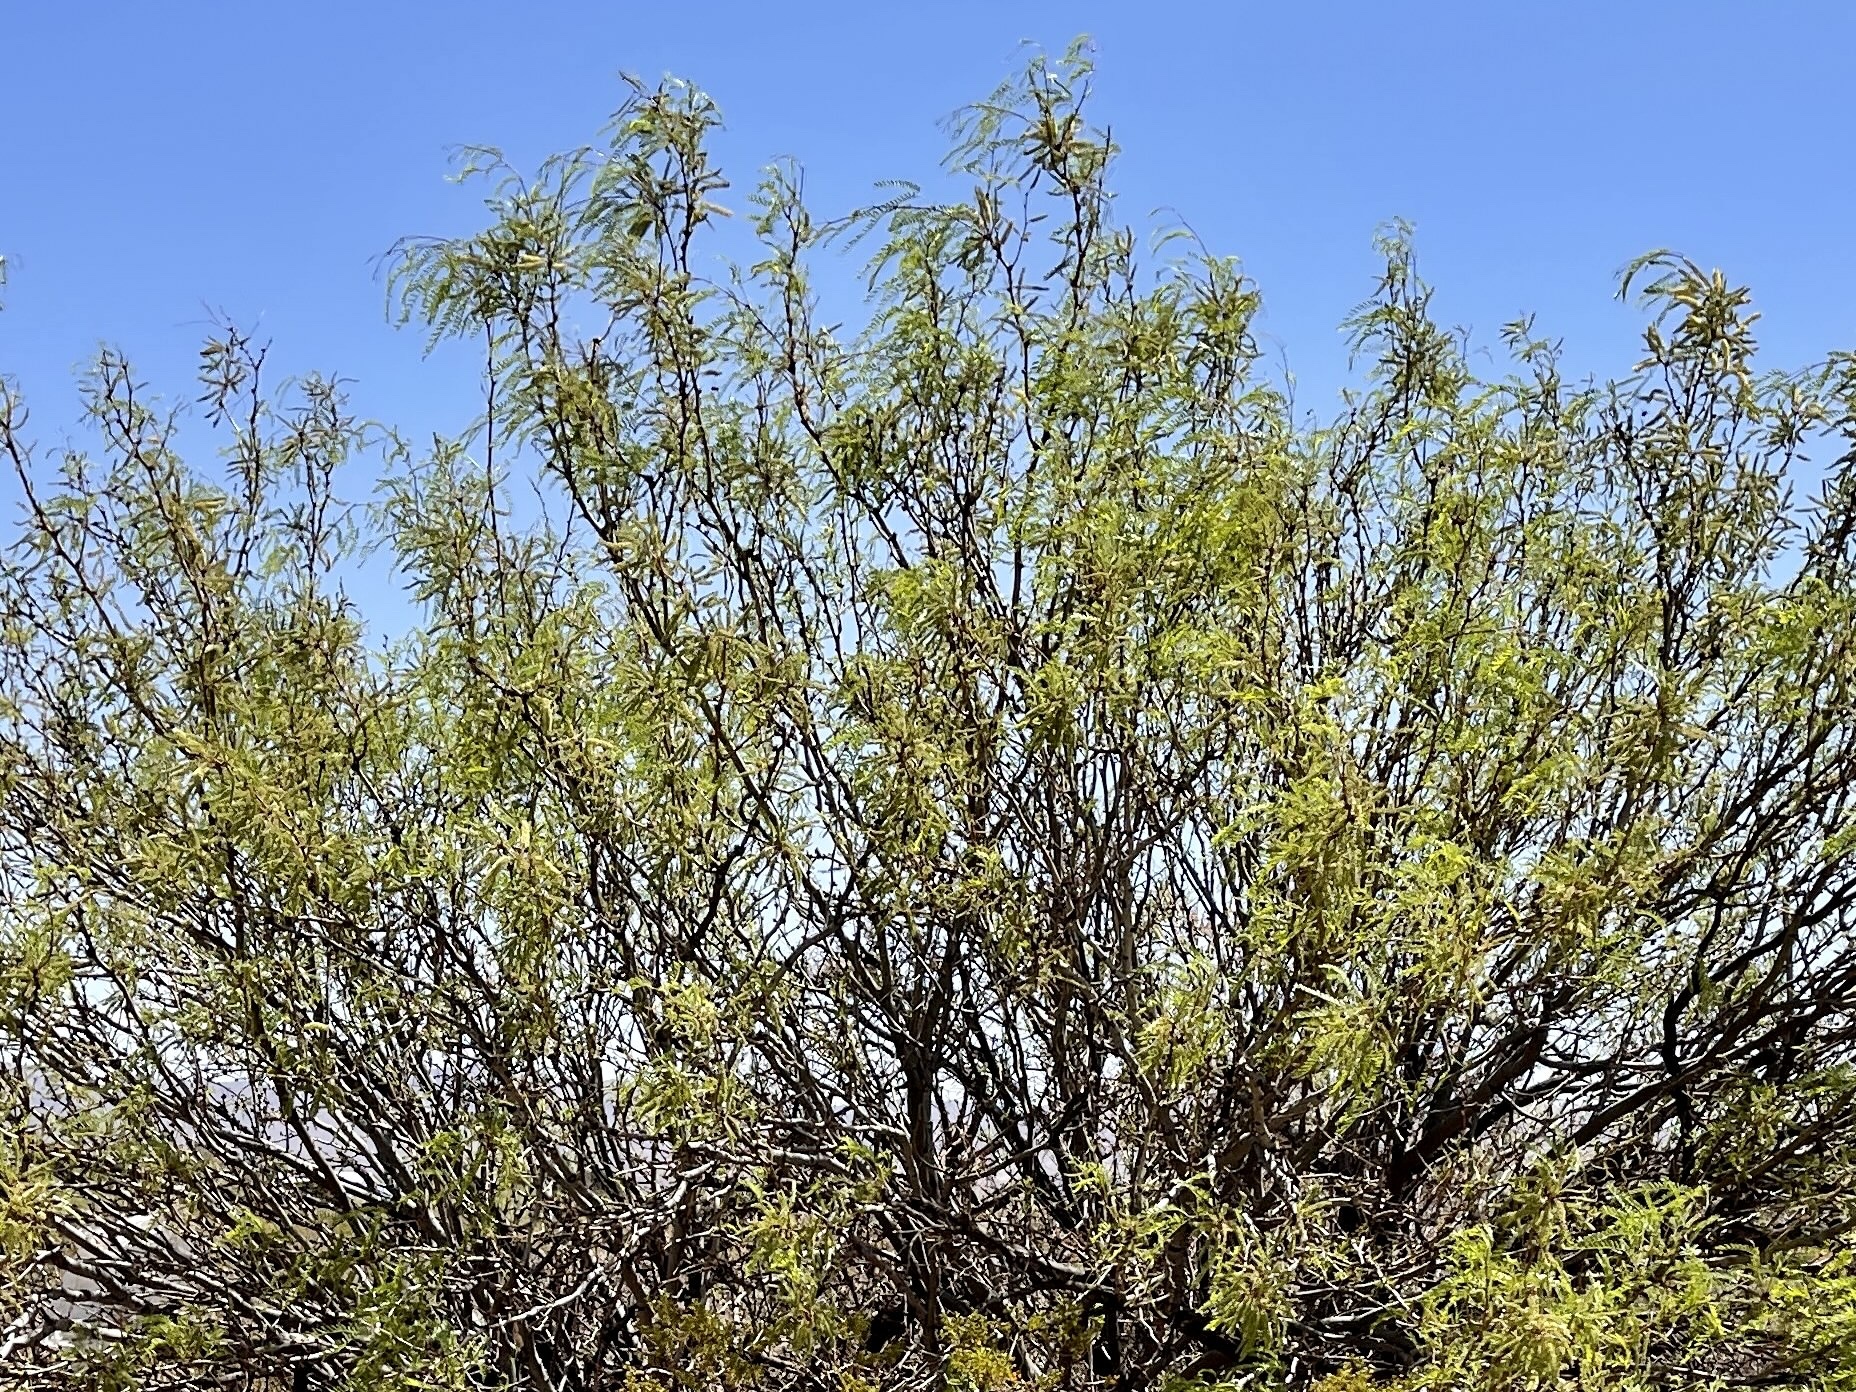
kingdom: Plantae
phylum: Tracheophyta
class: Magnoliopsida
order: Fabales
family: Fabaceae
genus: Prosopis
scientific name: Prosopis glandulosa
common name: Honey mesquite
